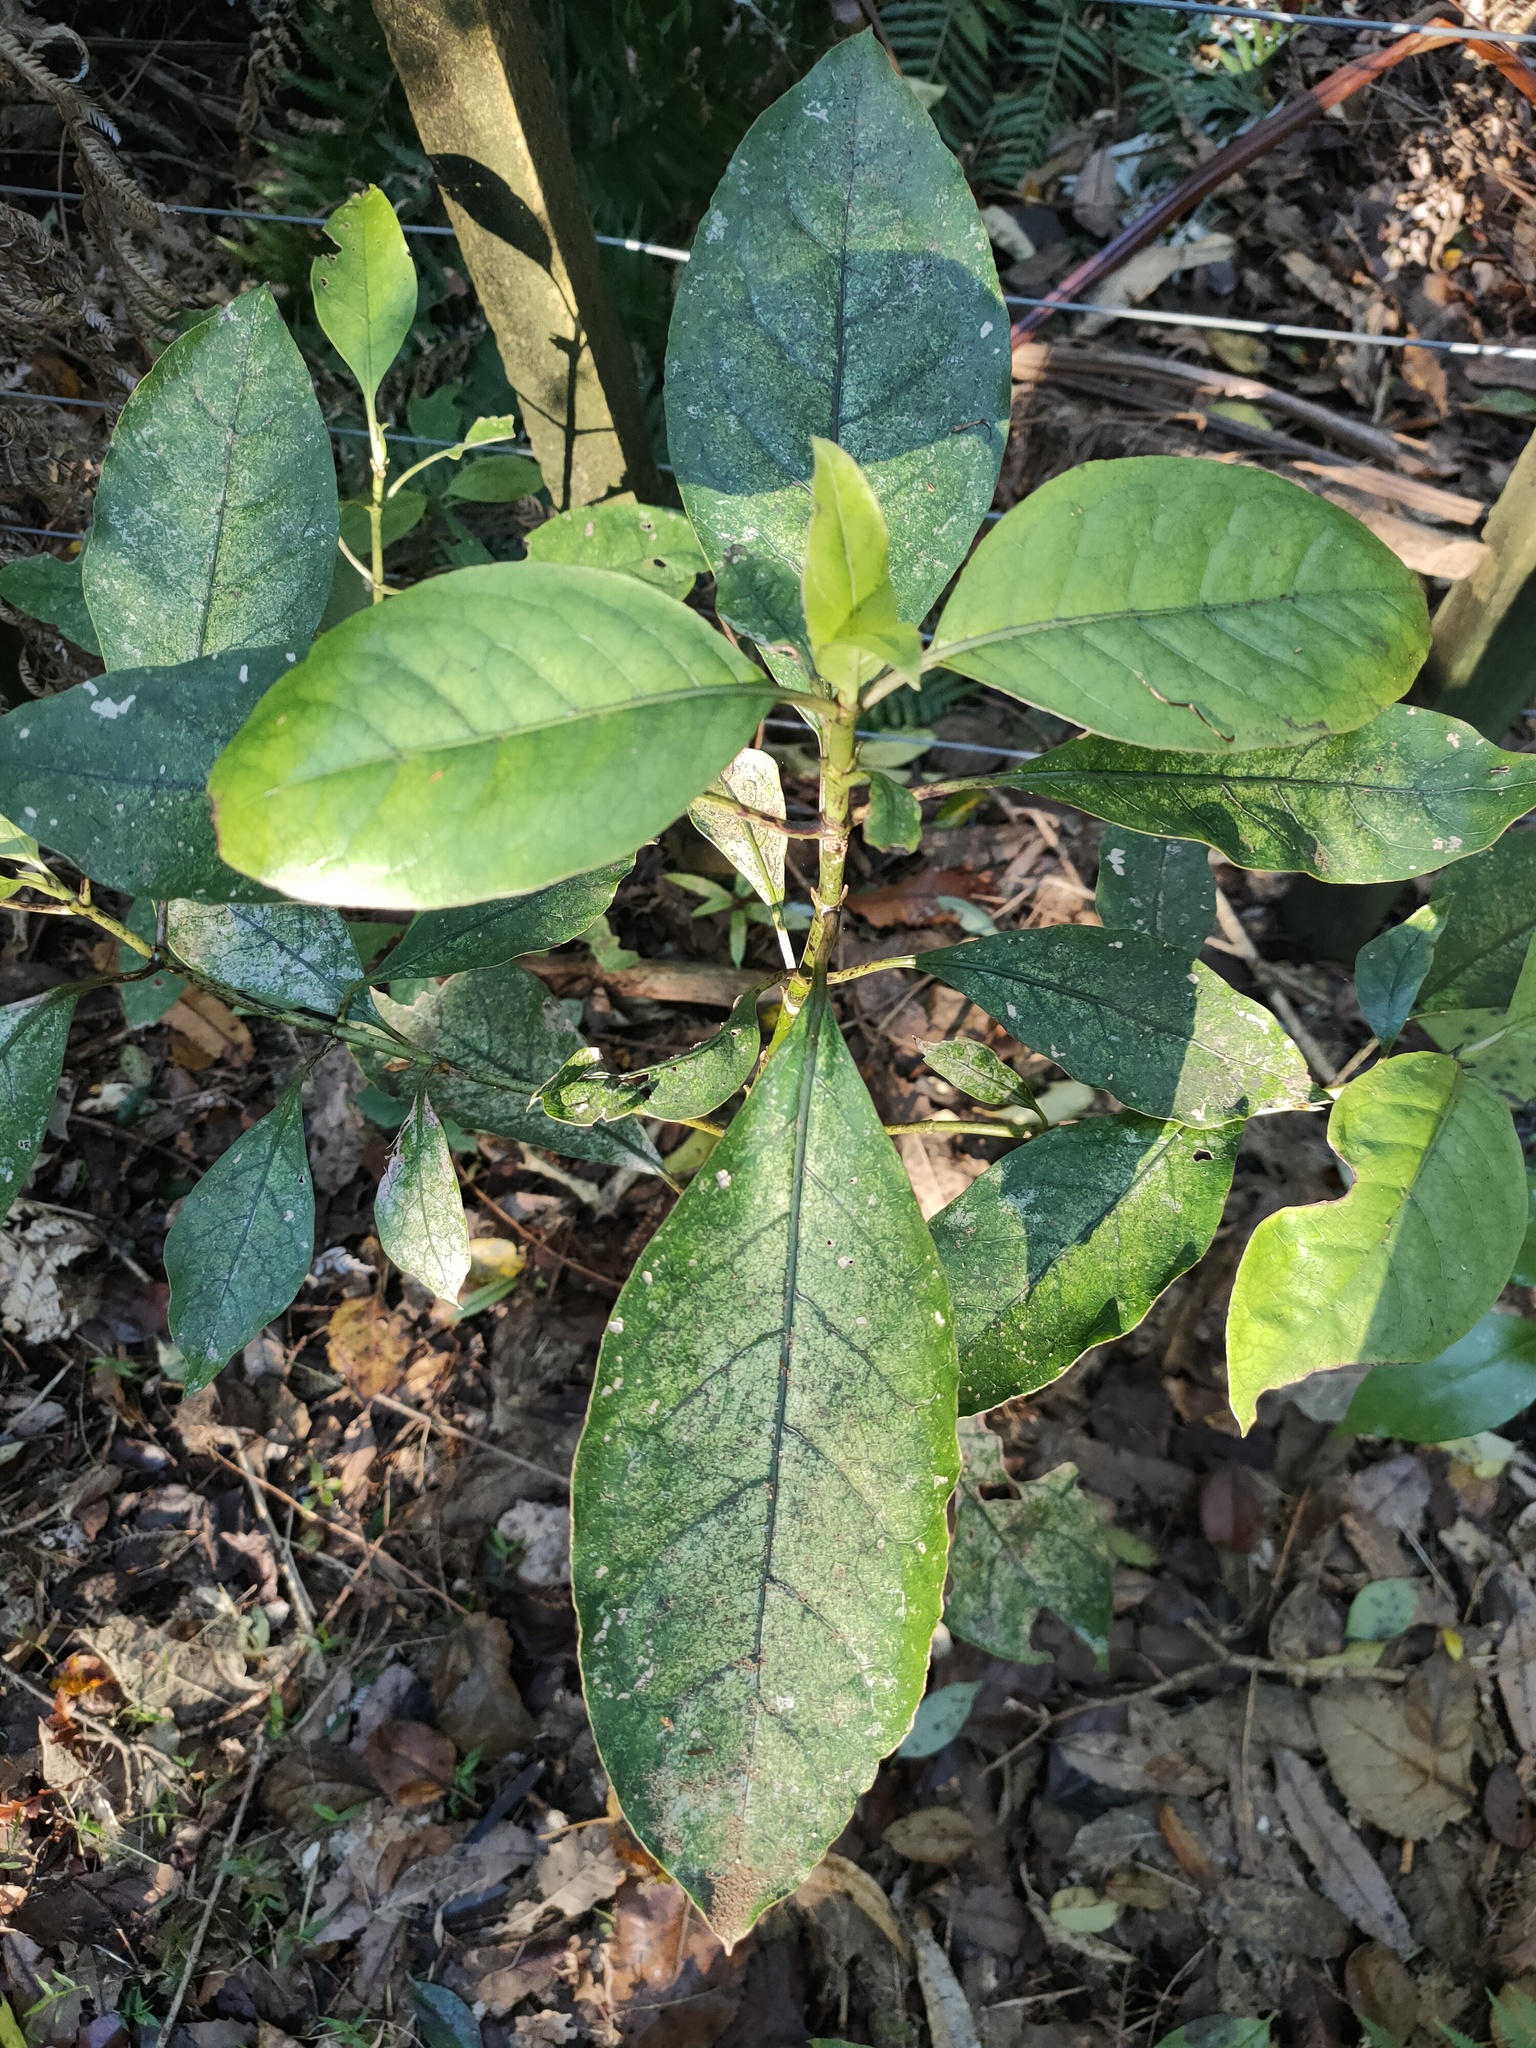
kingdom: Plantae
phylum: Tracheophyta
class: Magnoliopsida
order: Gentianales
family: Rubiaceae
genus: Coprosma
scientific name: Coprosma autumnalis
